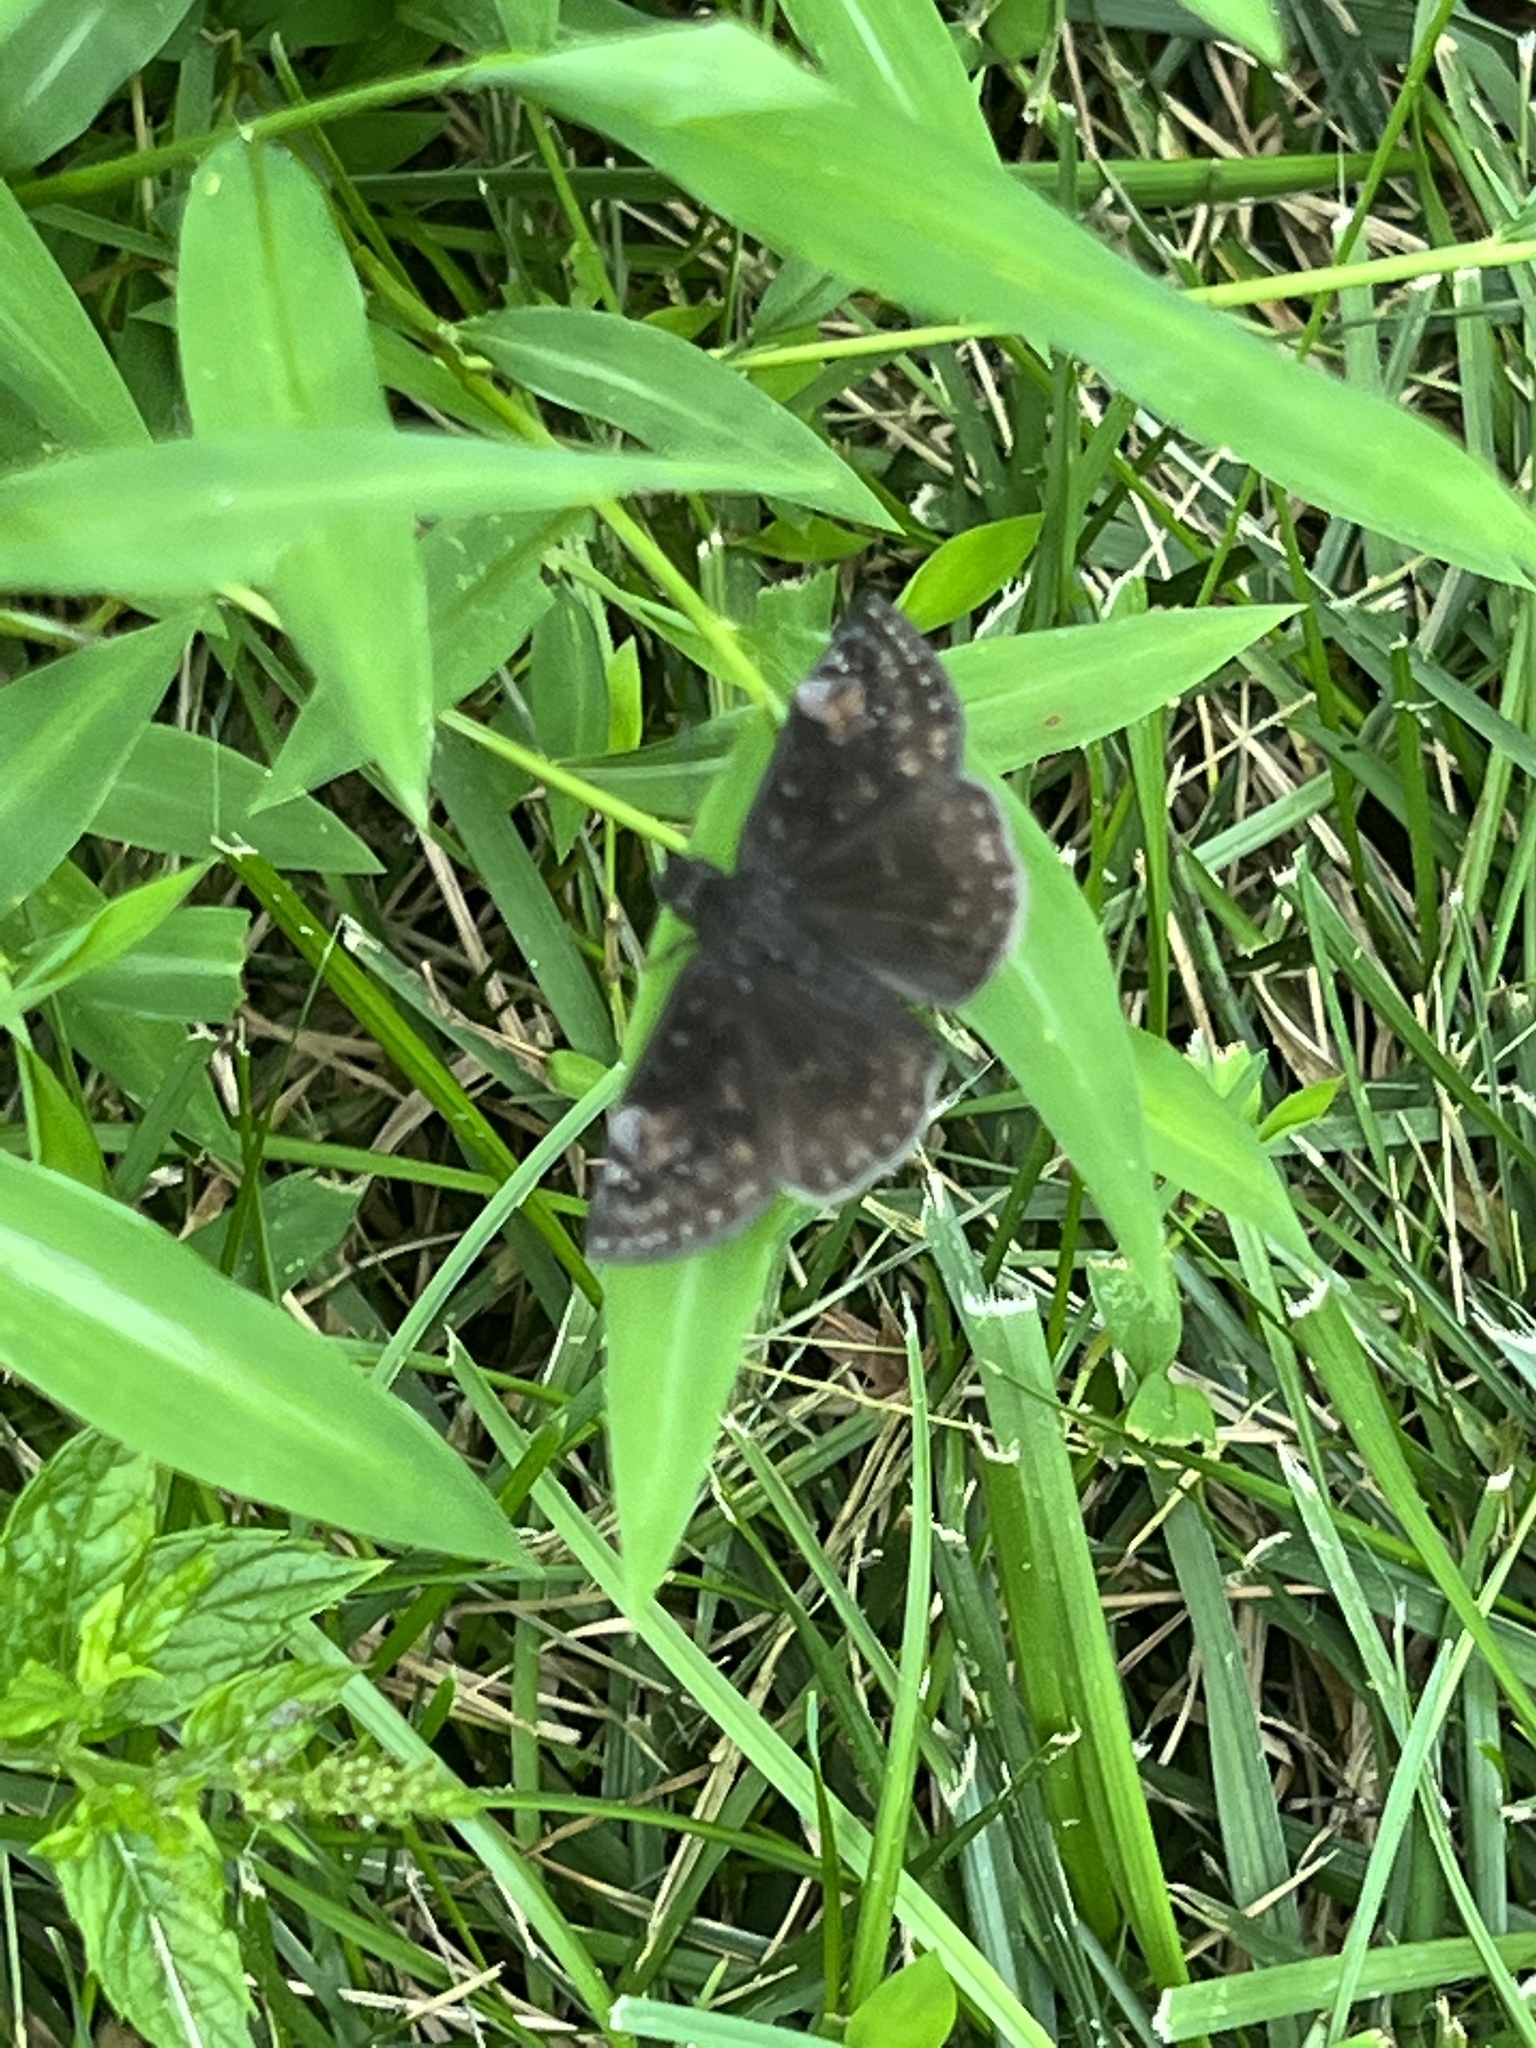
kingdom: Animalia
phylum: Arthropoda
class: Insecta
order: Lepidoptera
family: Hesperiidae
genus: Erynnis
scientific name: Erynnis baptisiae
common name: Wild indigo duskywing
